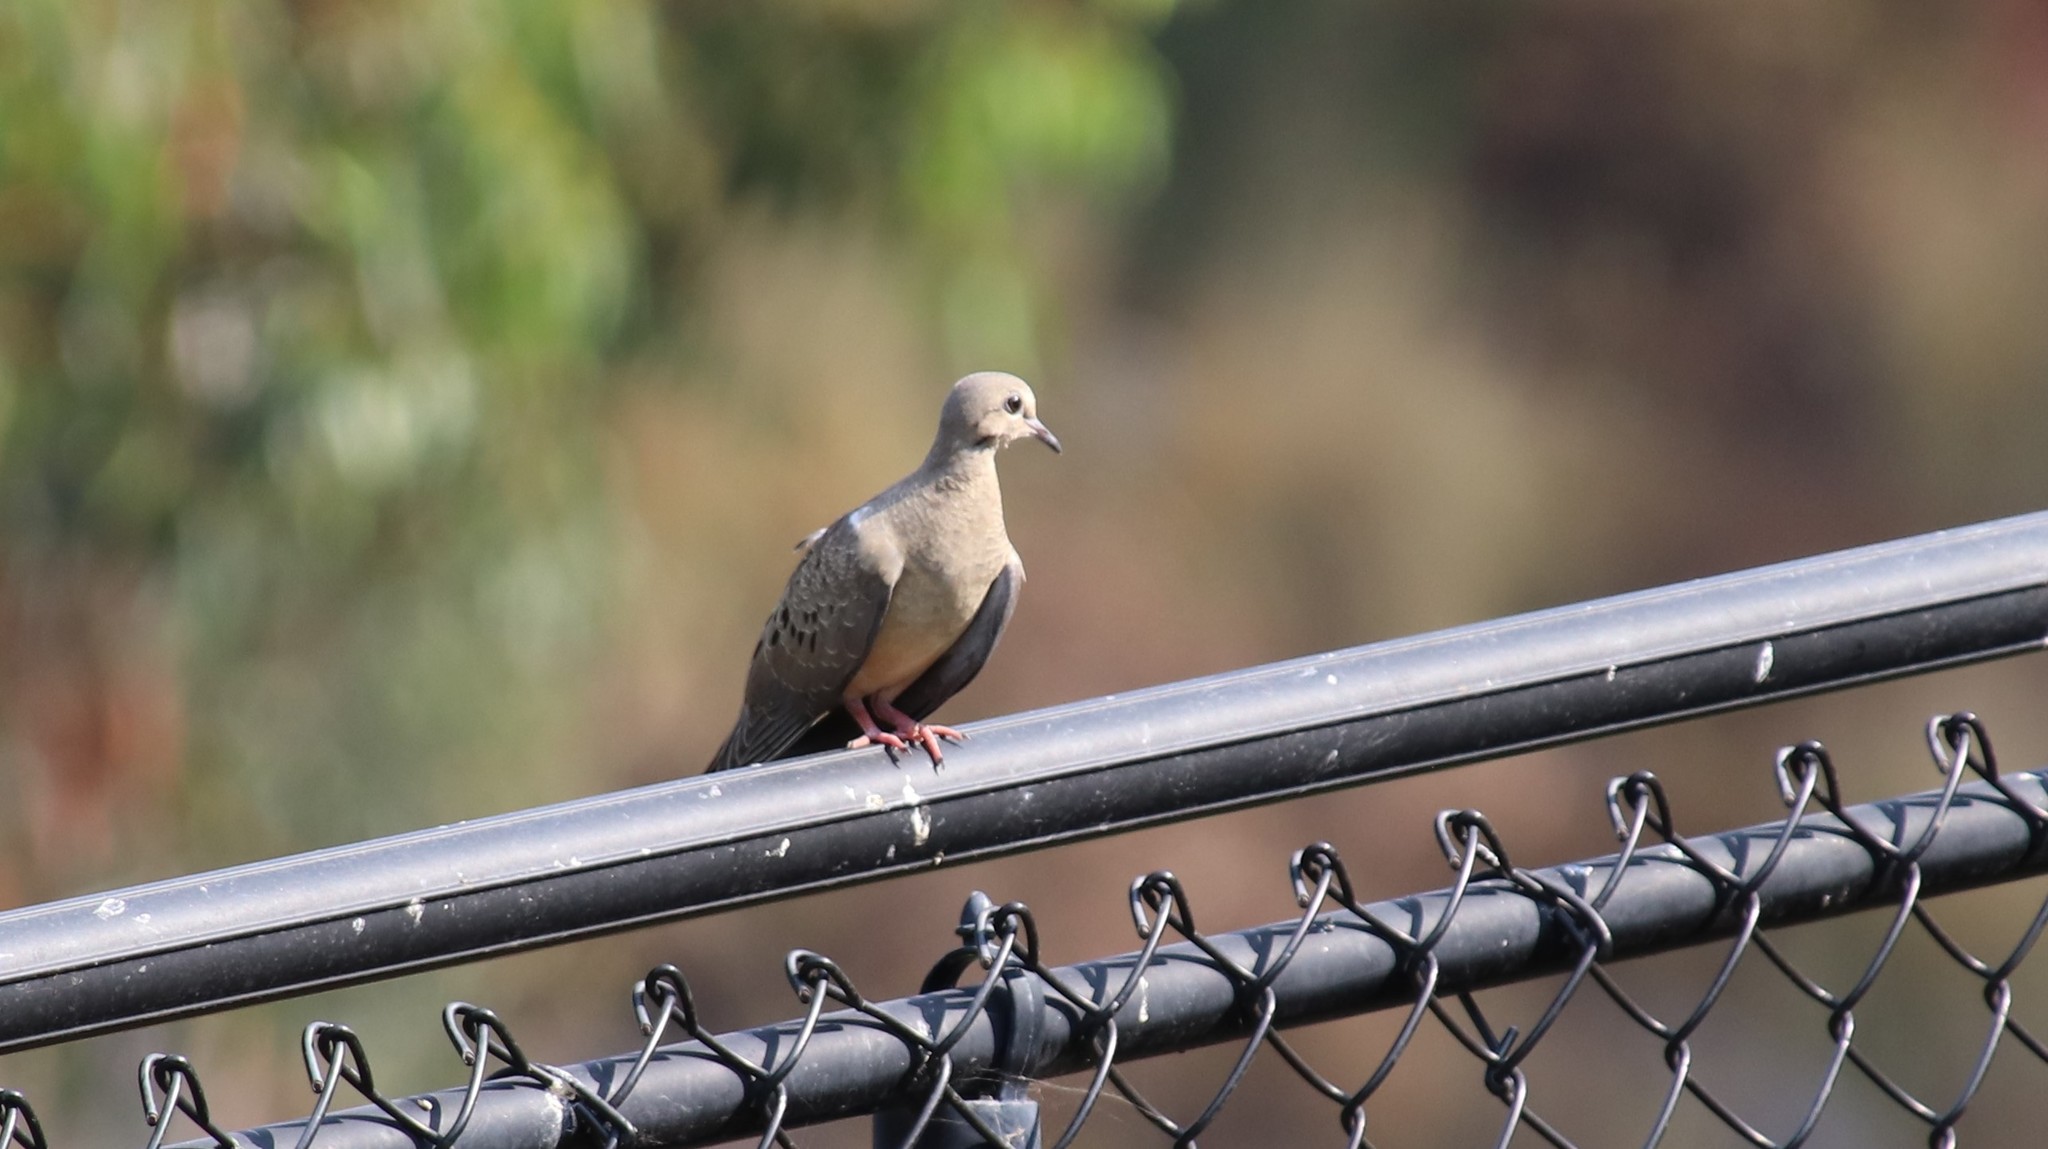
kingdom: Animalia
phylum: Chordata
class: Aves
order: Columbiformes
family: Columbidae
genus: Zenaida
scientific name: Zenaida macroura
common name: Mourning dove
